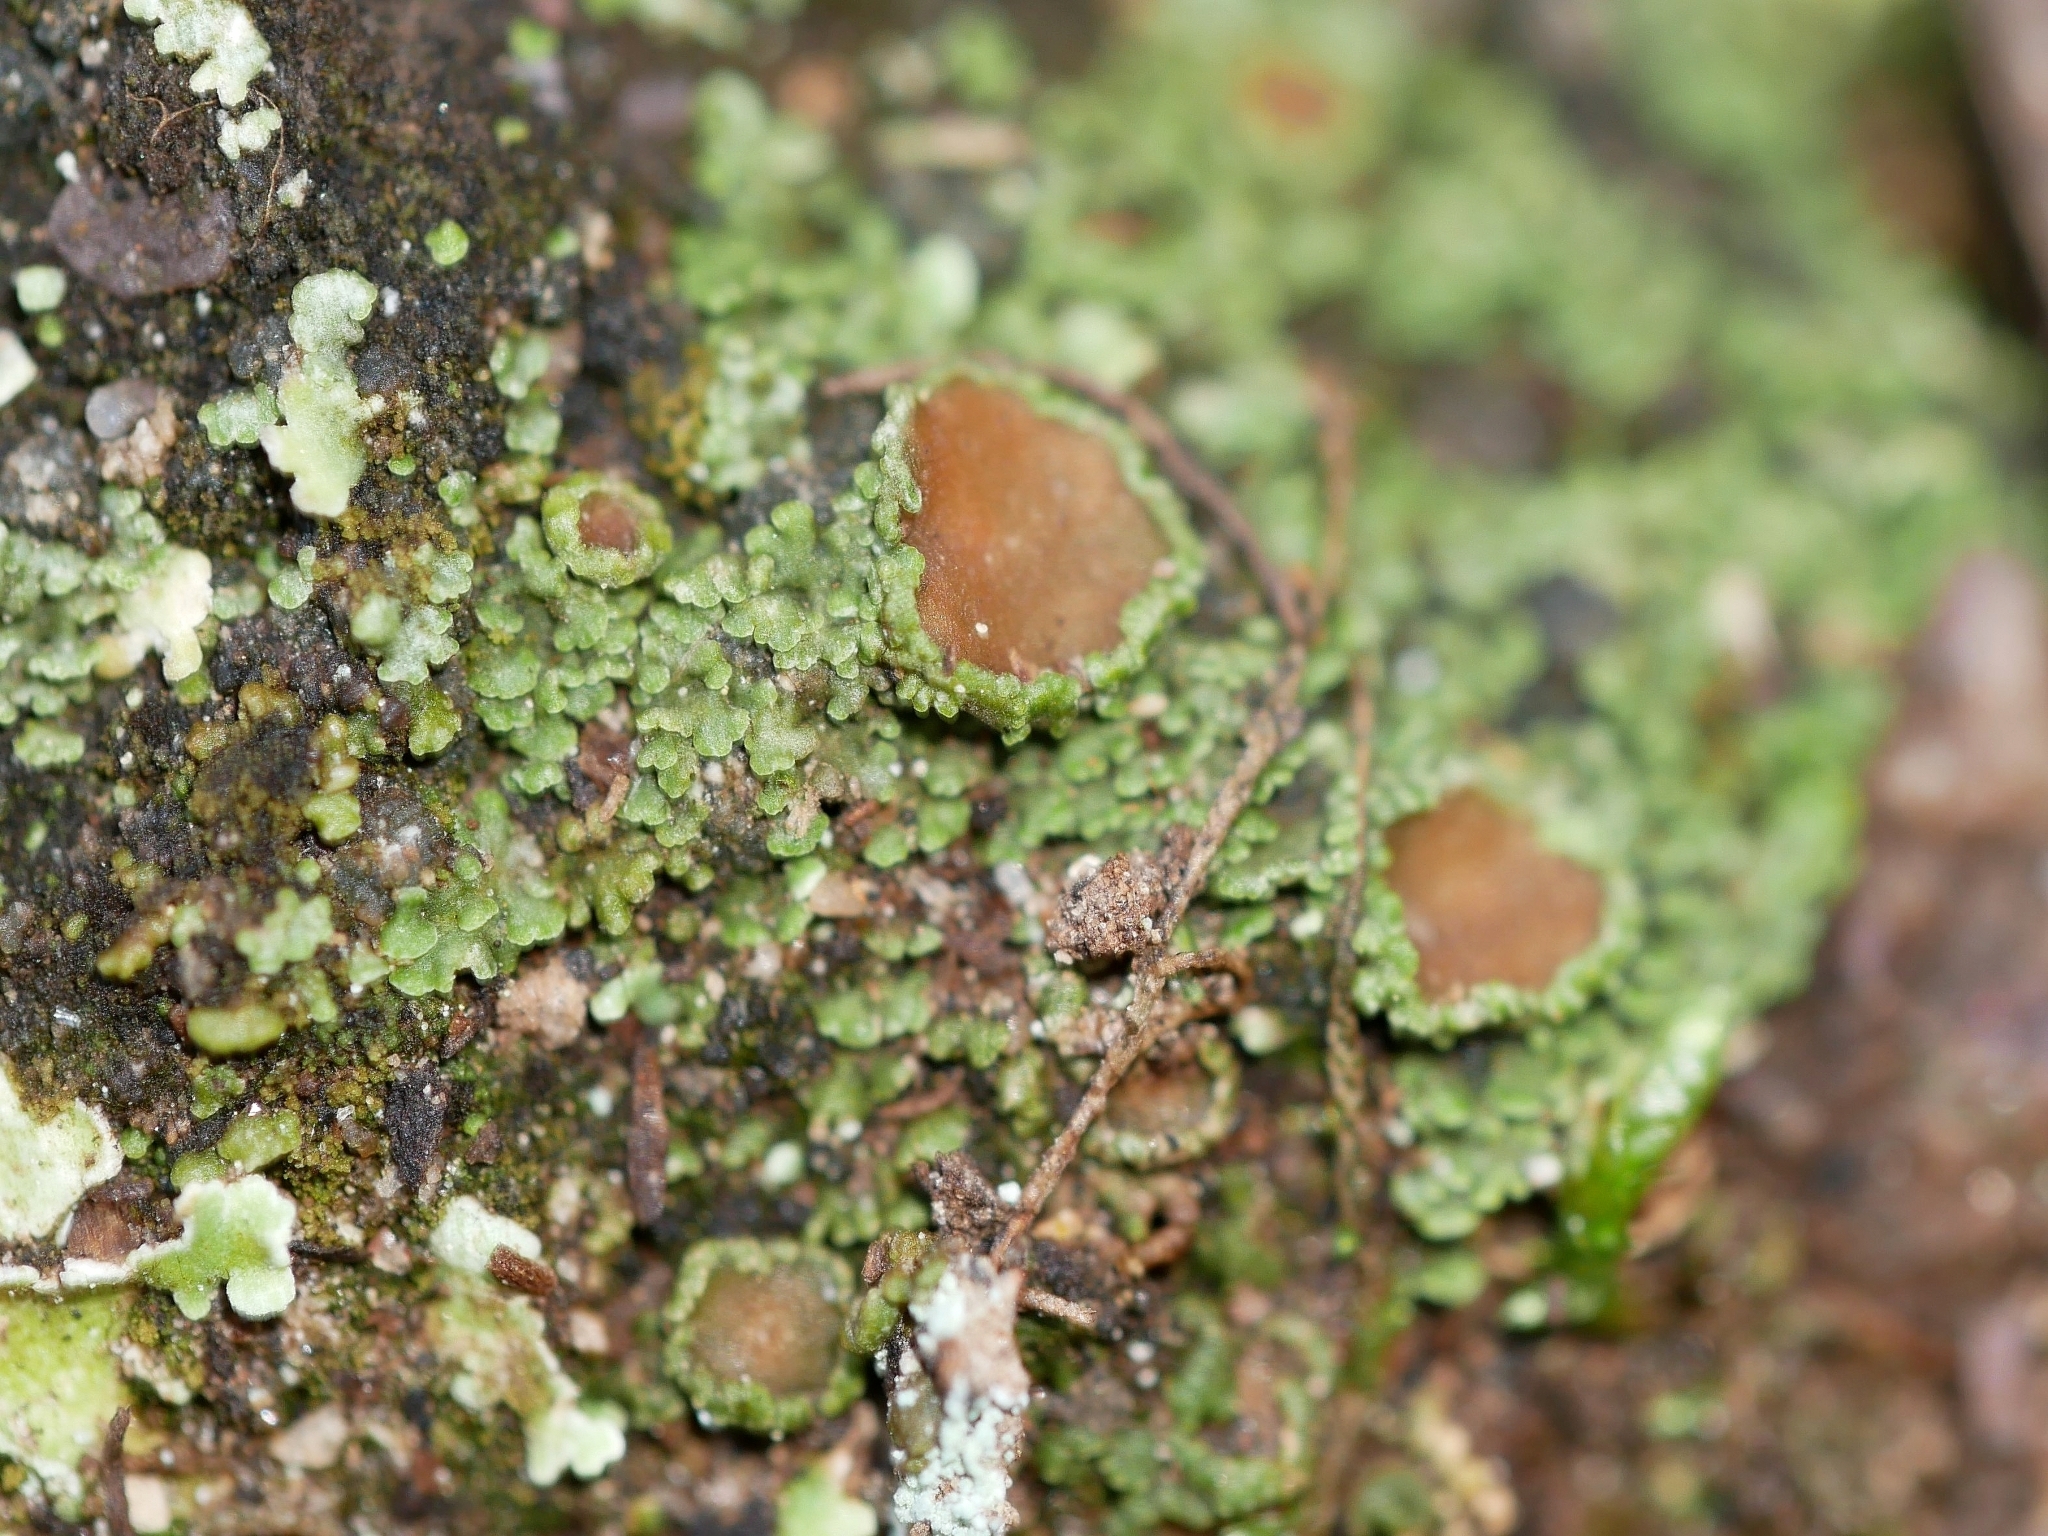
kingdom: Fungi
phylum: Ascomycota
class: Lecanoromycetes
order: Peltigerales
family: Pannariaceae
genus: Psoroma
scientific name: Psoroma hypnorum
